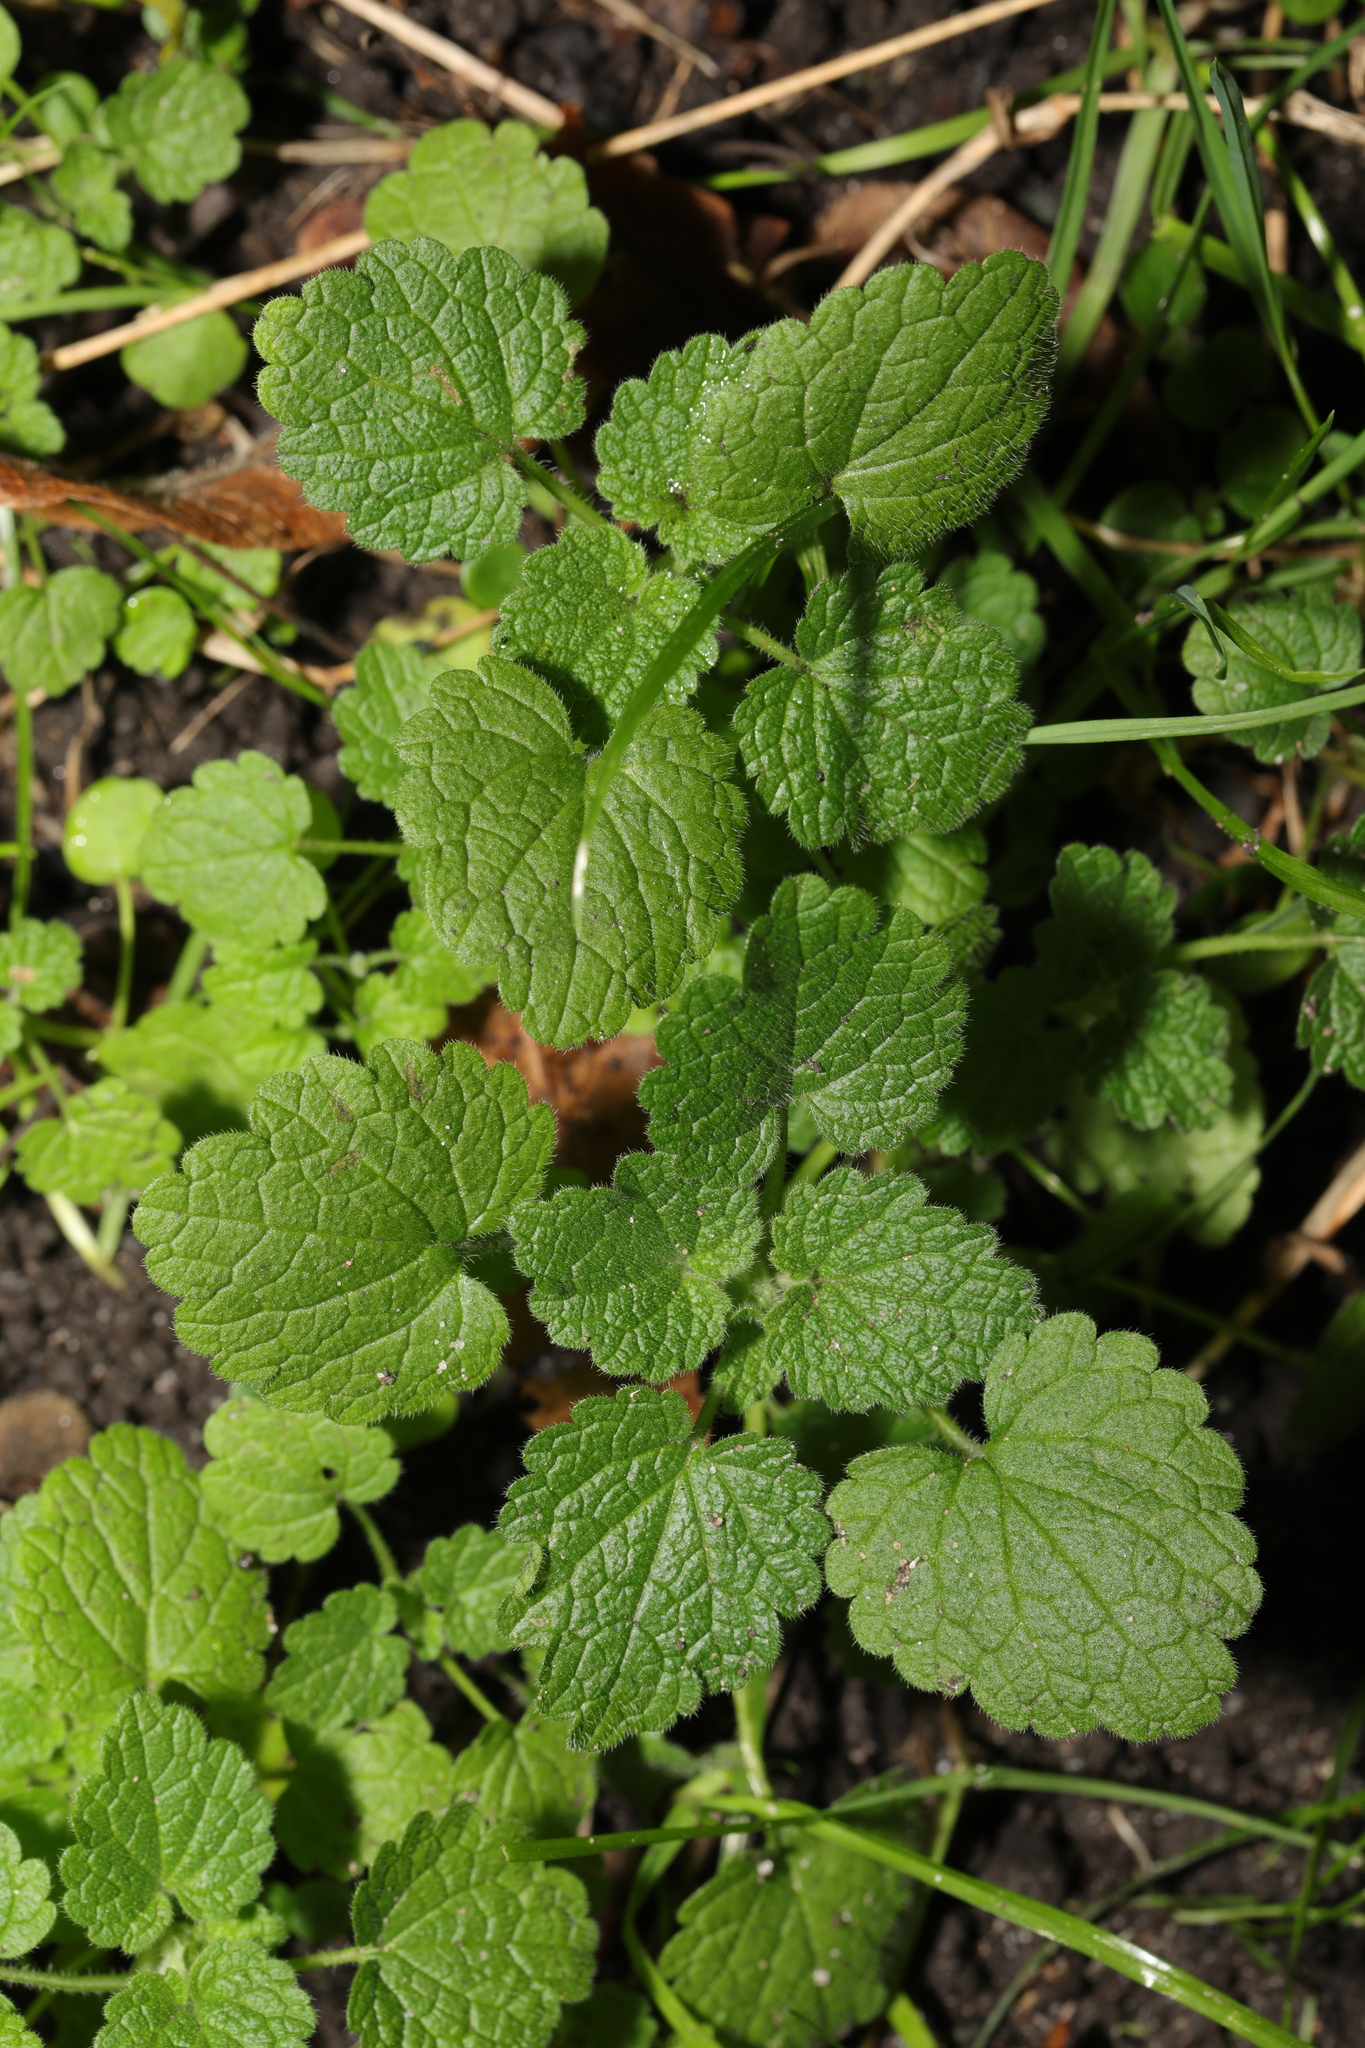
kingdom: Plantae
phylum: Tracheophyta
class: Magnoliopsida
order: Lamiales
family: Lamiaceae
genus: Lamium
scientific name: Lamium purpureum
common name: Red dead-nettle
